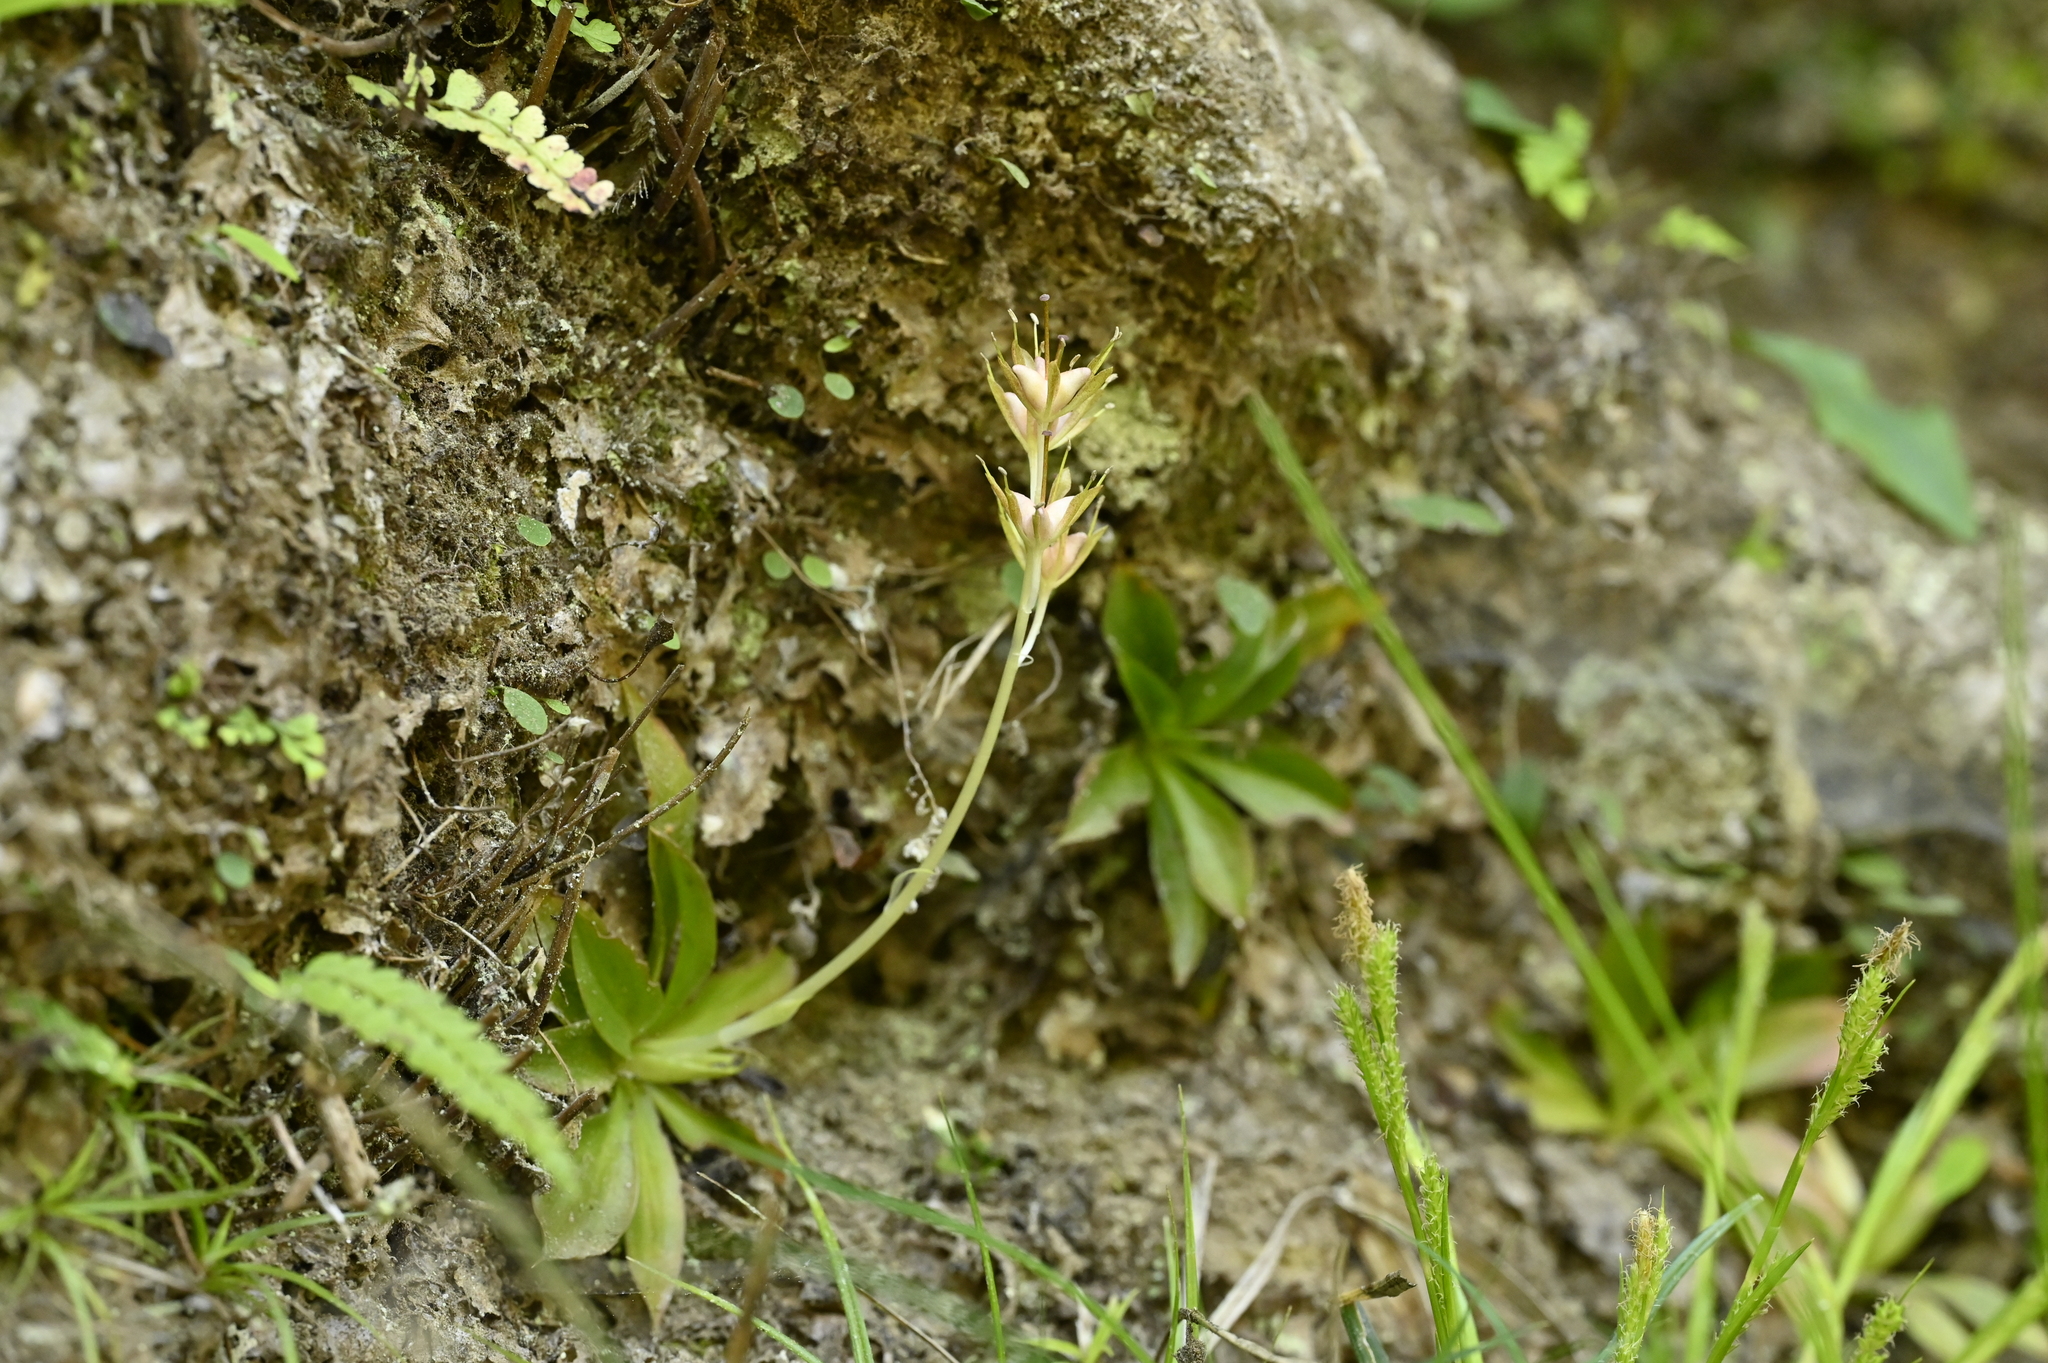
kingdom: Plantae
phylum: Tracheophyta
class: Liliopsida
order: Liliales
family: Melanthiaceae
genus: Helonias
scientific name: Helonias thibetica
